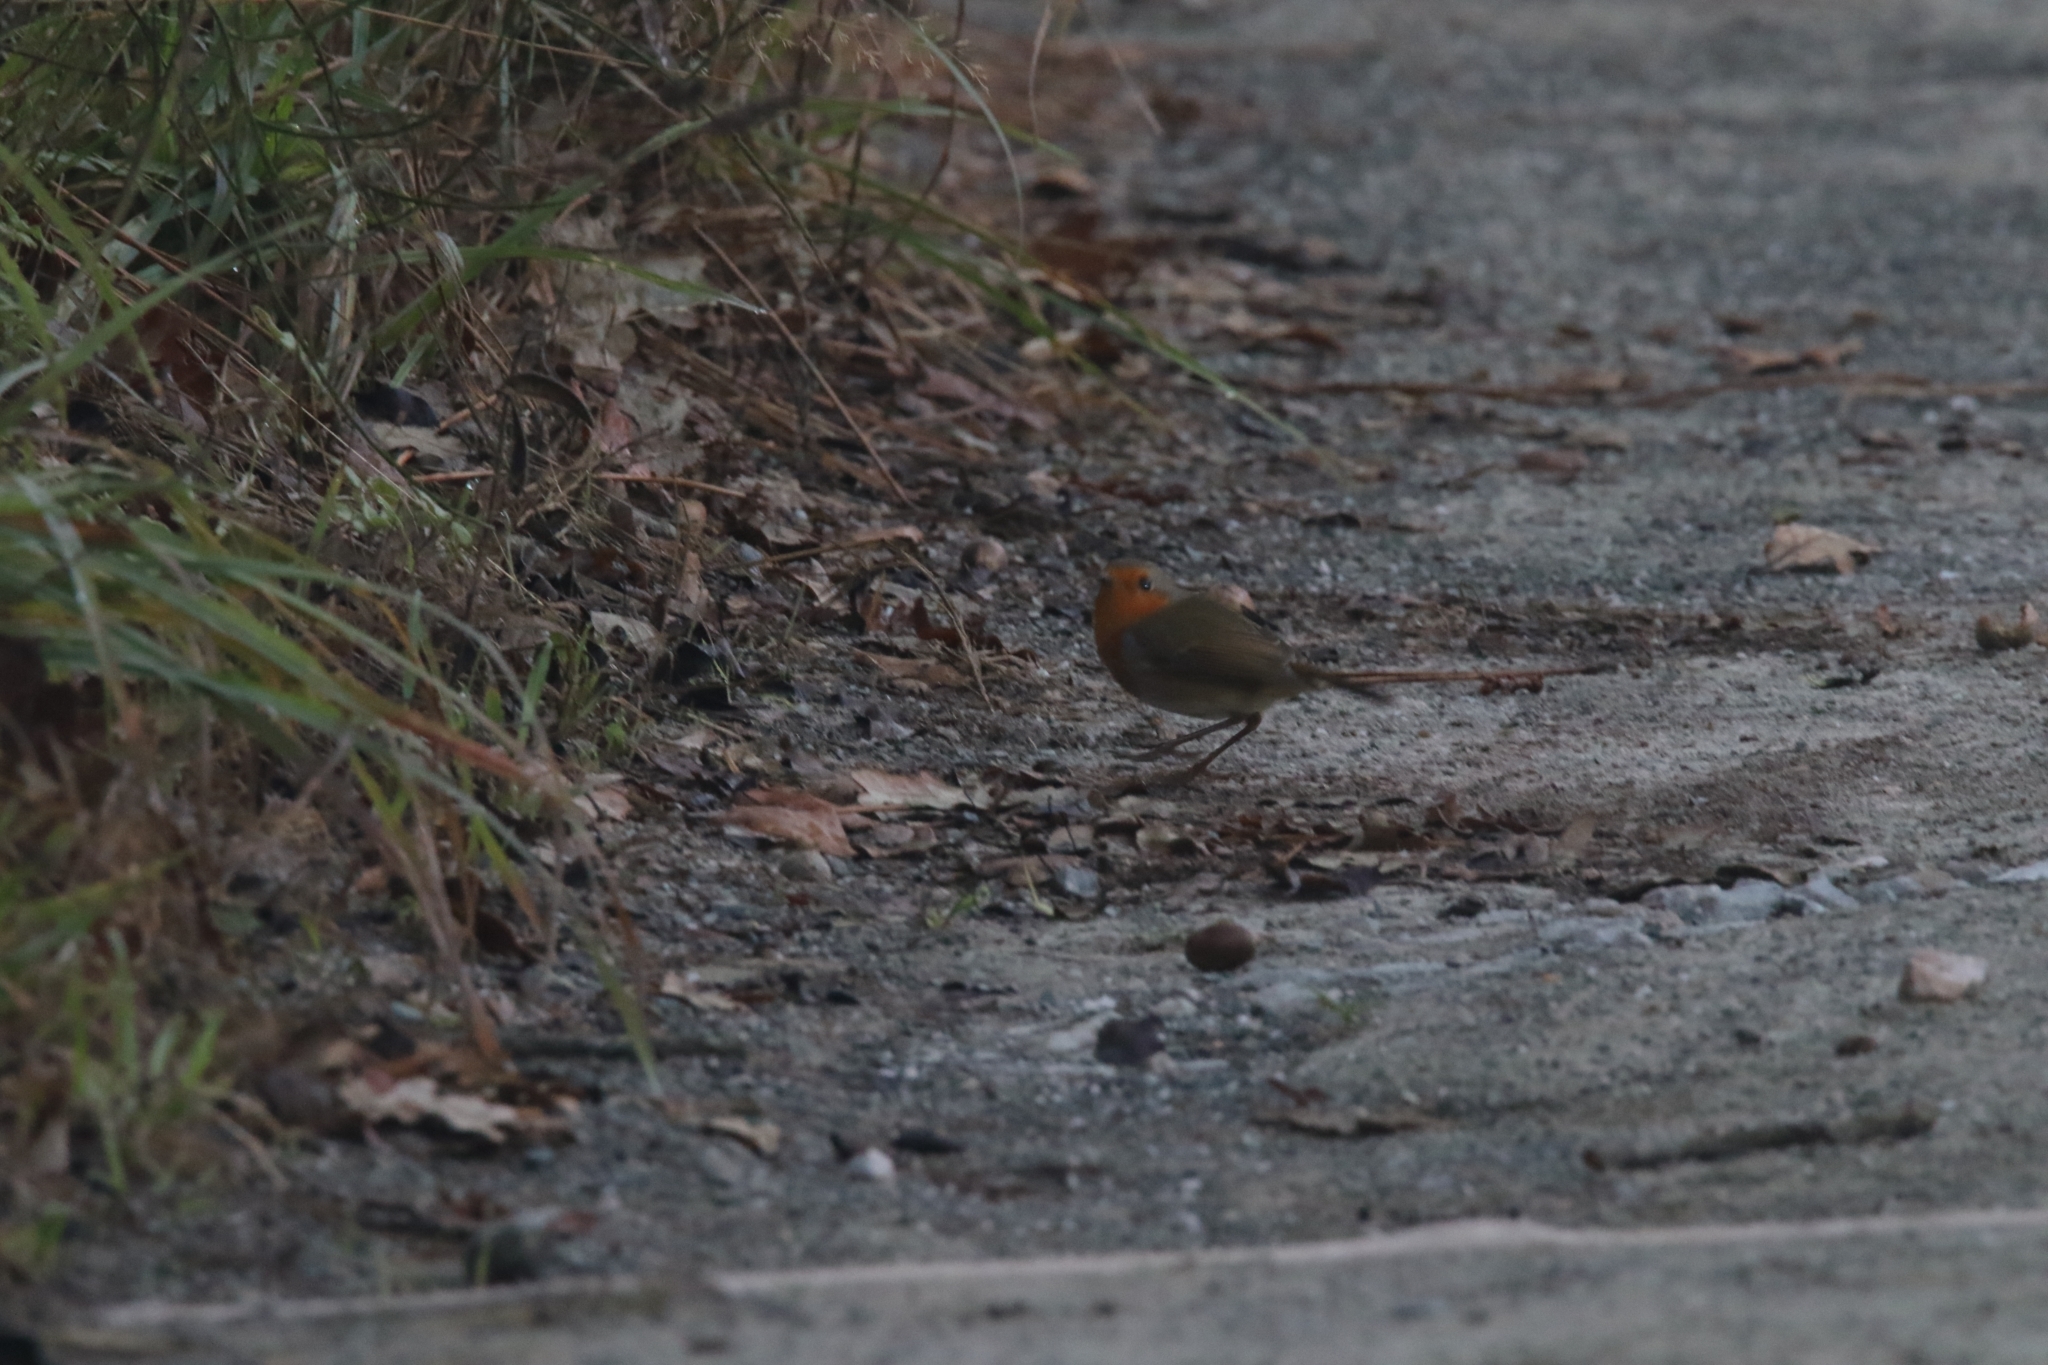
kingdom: Animalia
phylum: Chordata
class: Aves
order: Passeriformes
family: Muscicapidae
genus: Erithacus
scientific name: Erithacus rubecula
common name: European robin
